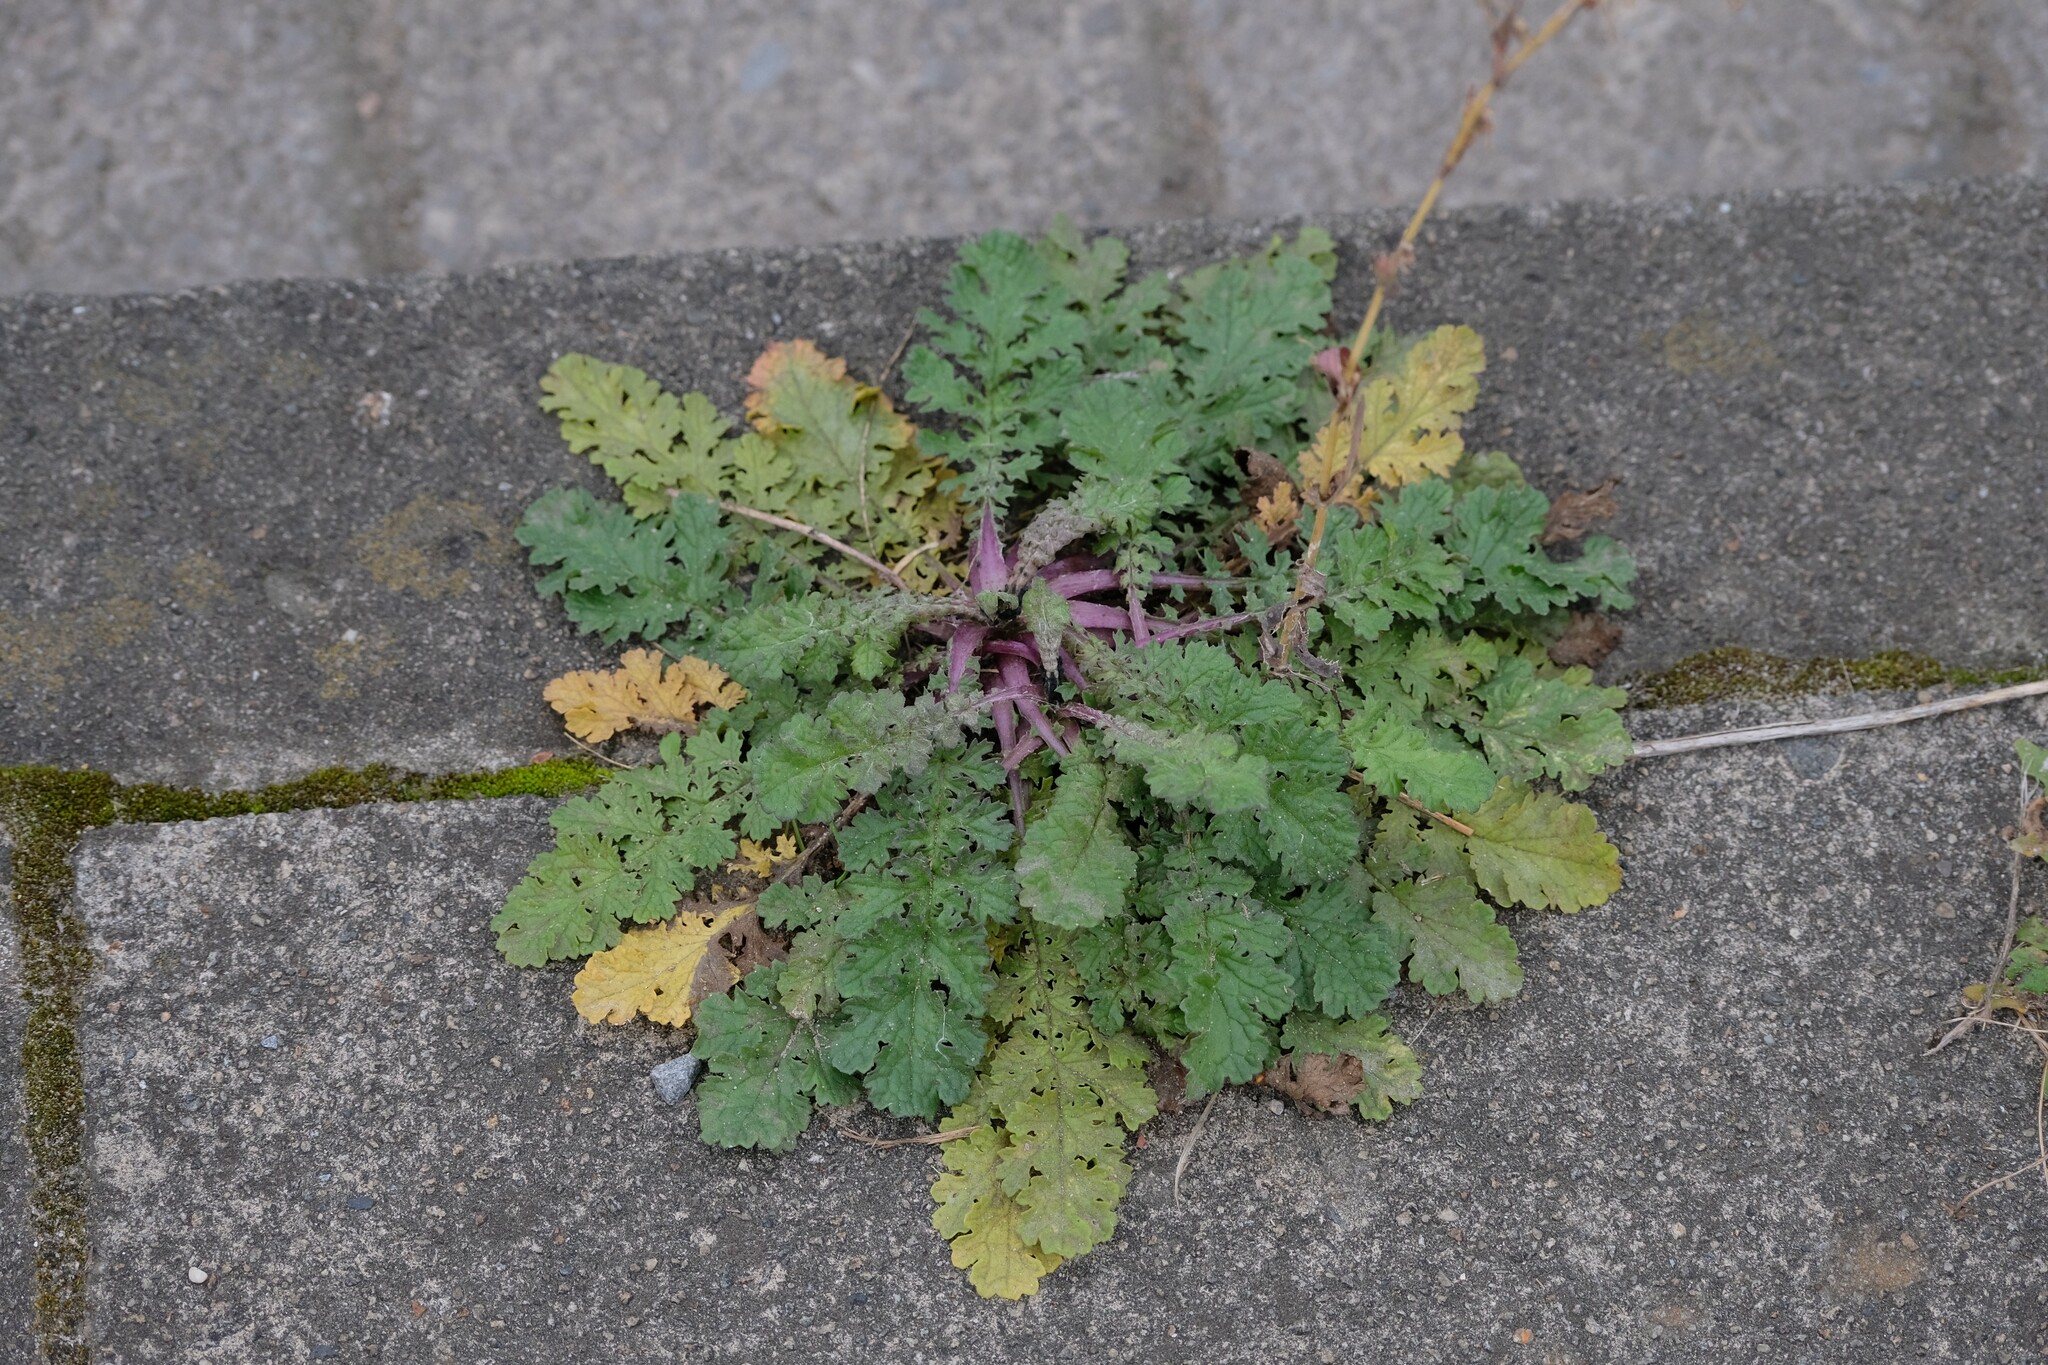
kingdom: Plantae
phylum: Tracheophyta
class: Magnoliopsida
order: Asterales
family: Asteraceae
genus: Jacobaea
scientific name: Jacobaea vulgaris
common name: Stinking willie
